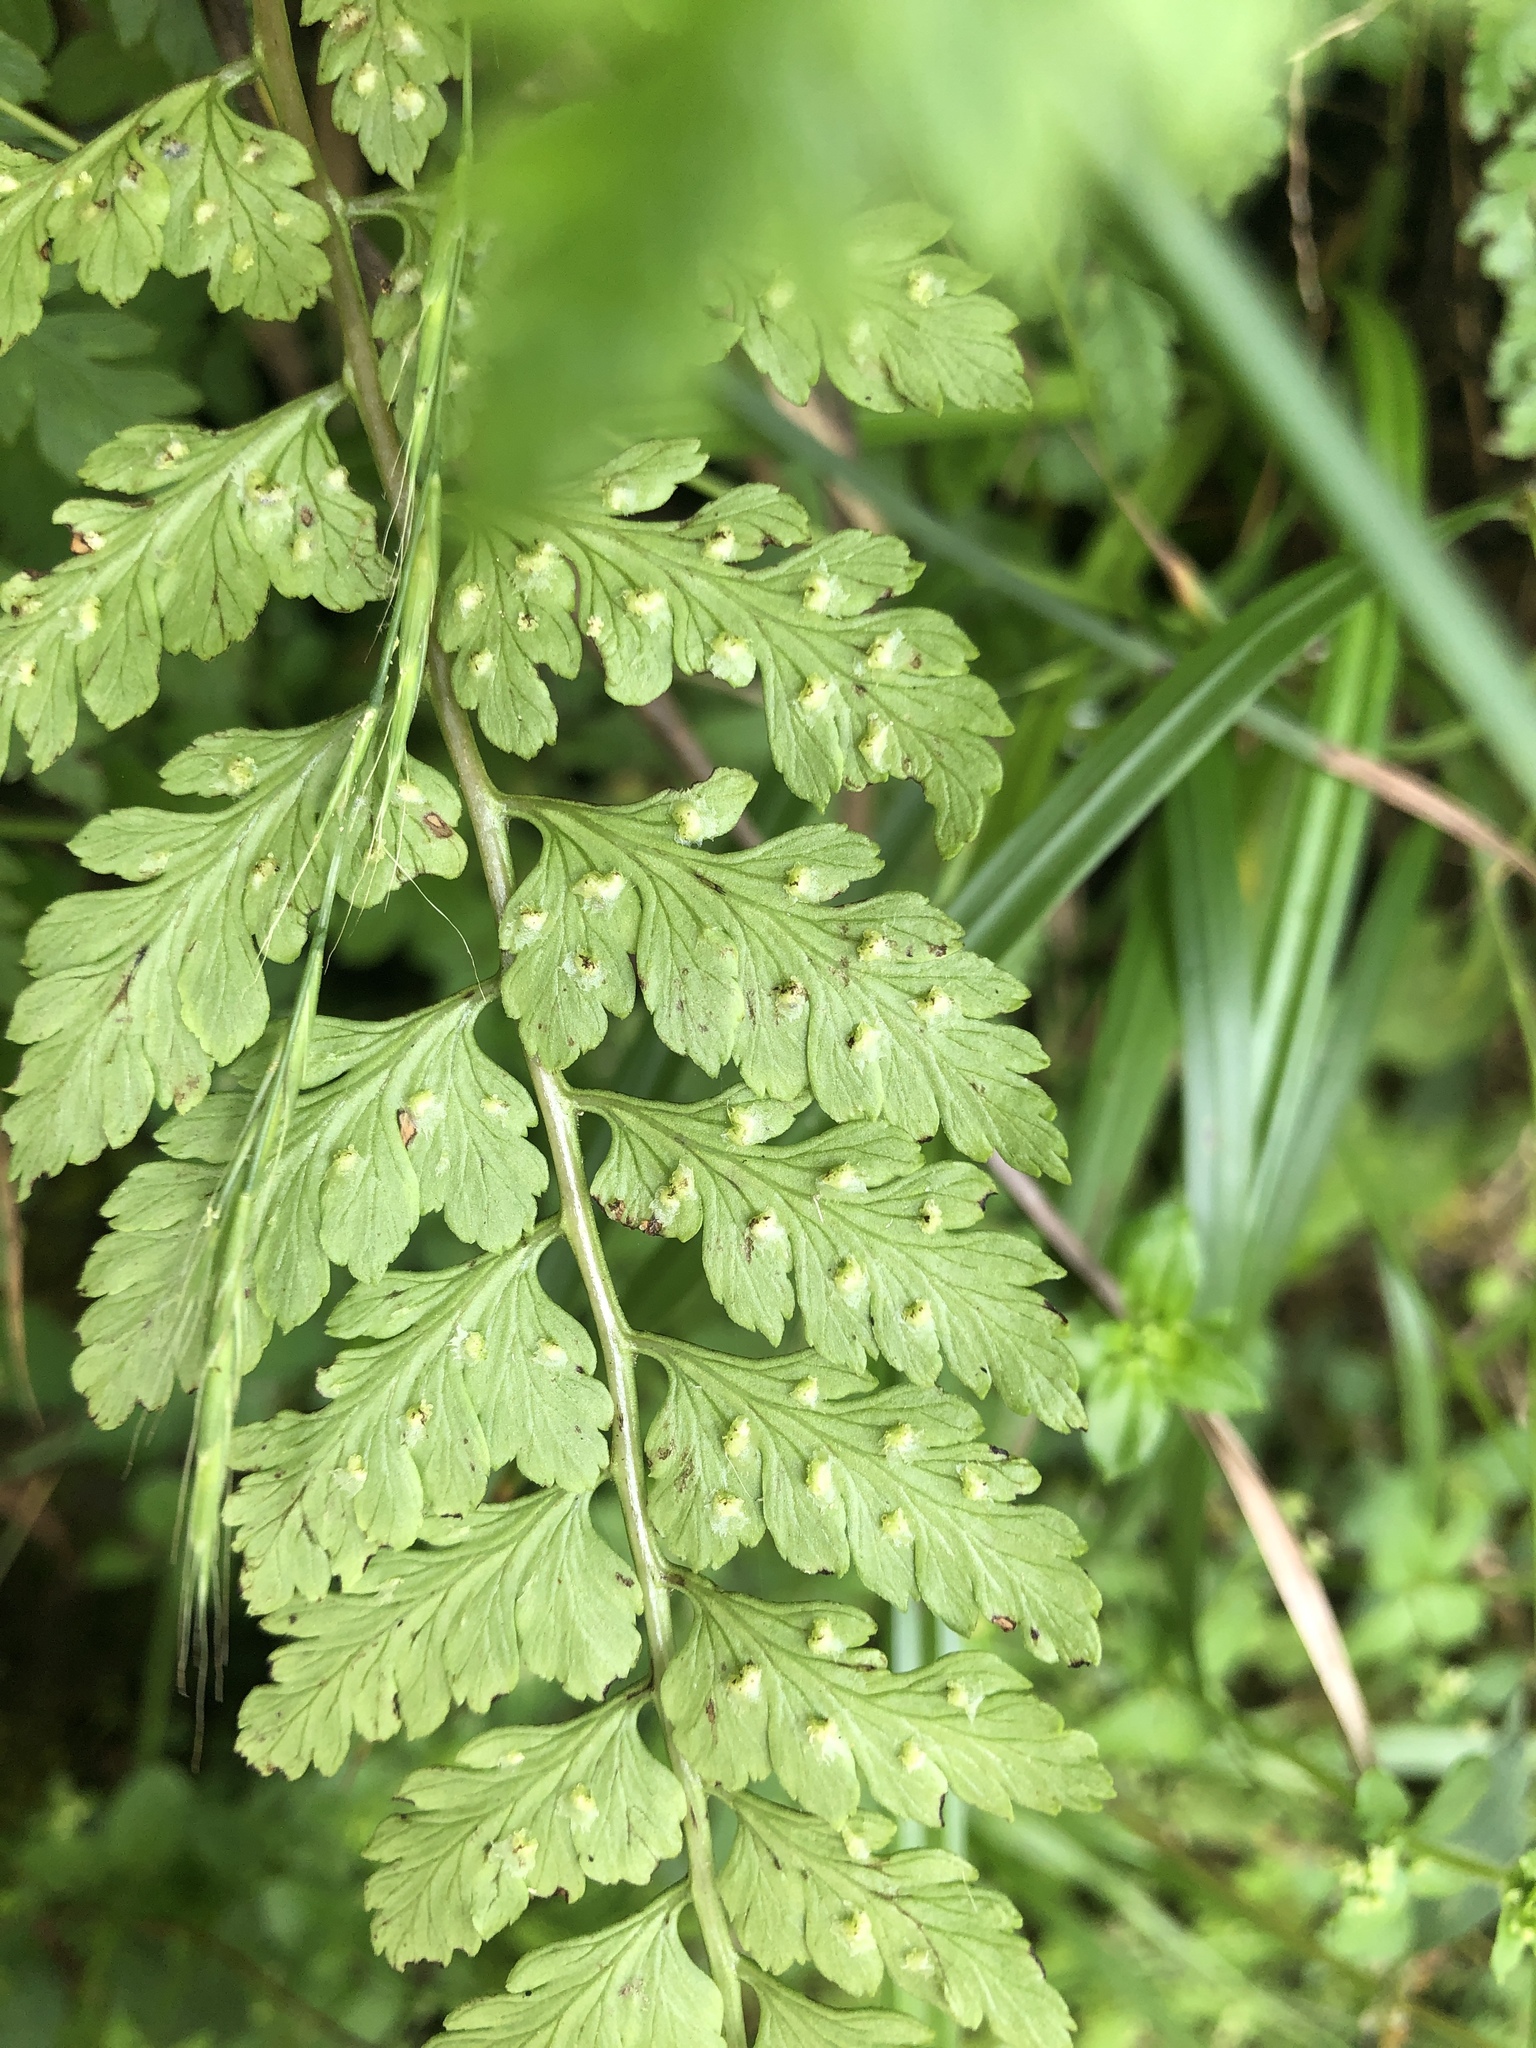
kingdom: Plantae
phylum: Tracheophyta
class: Polypodiopsida
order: Polypodiales
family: Athyriaceae
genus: Athyrium
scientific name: Athyrium anisopterum
